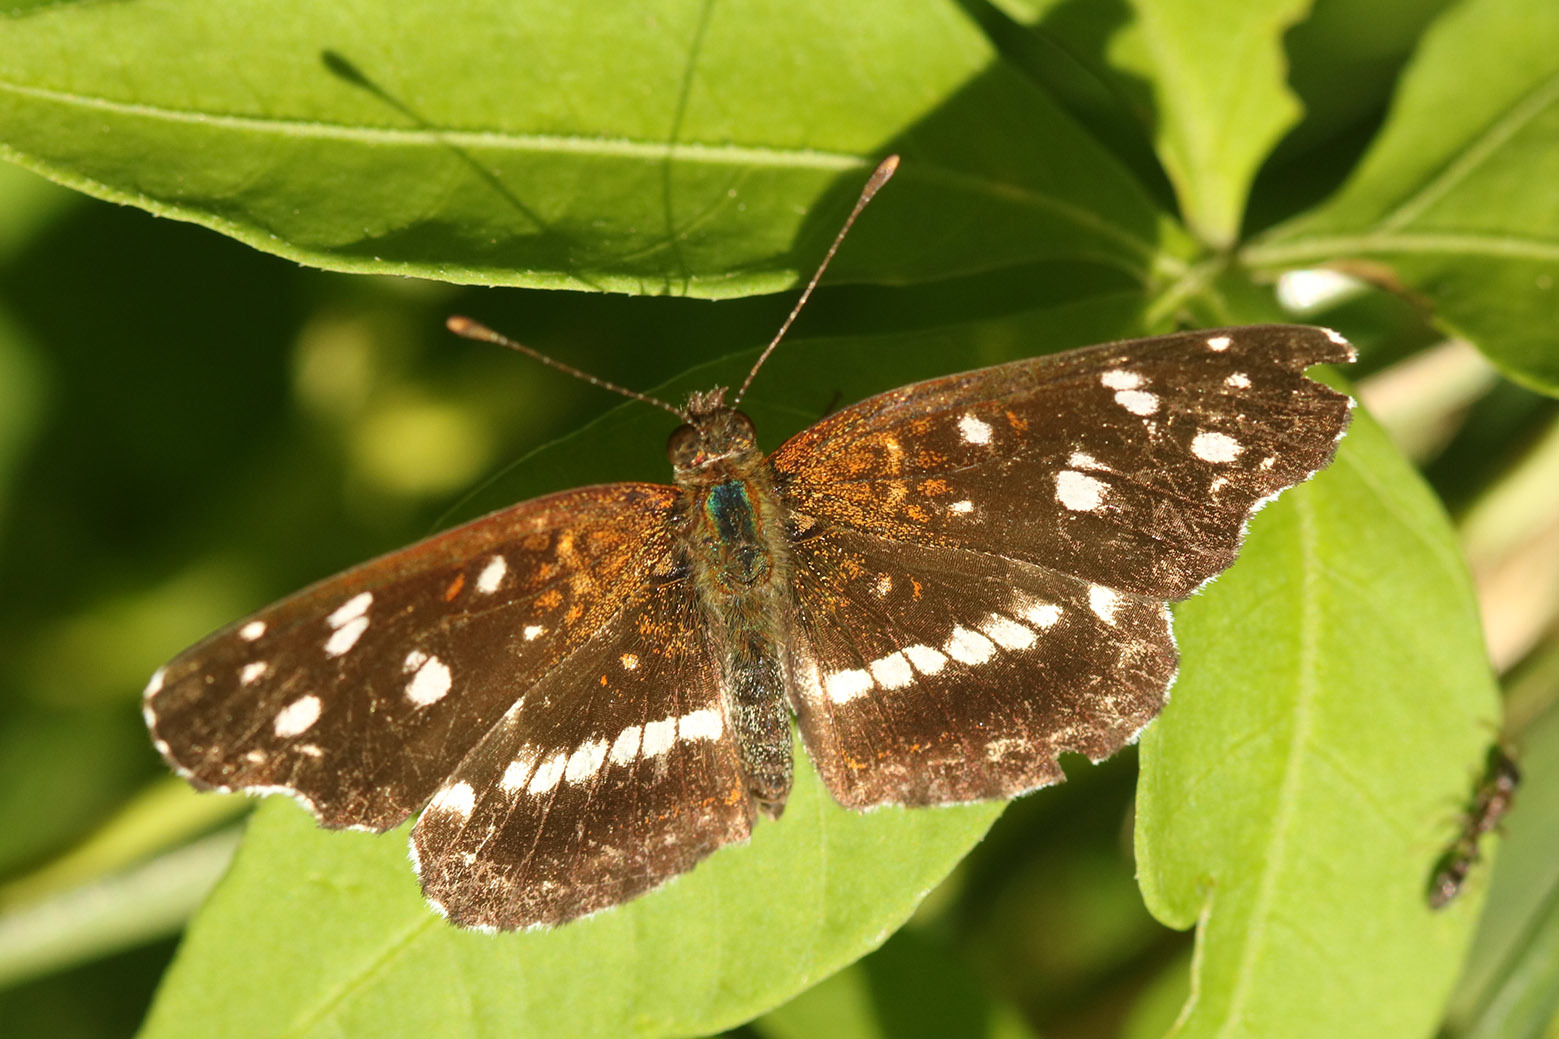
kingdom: Animalia
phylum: Arthropoda
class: Insecta
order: Lepidoptera
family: Nymphalidae
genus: Ortilia
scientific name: Ortilia ithra
